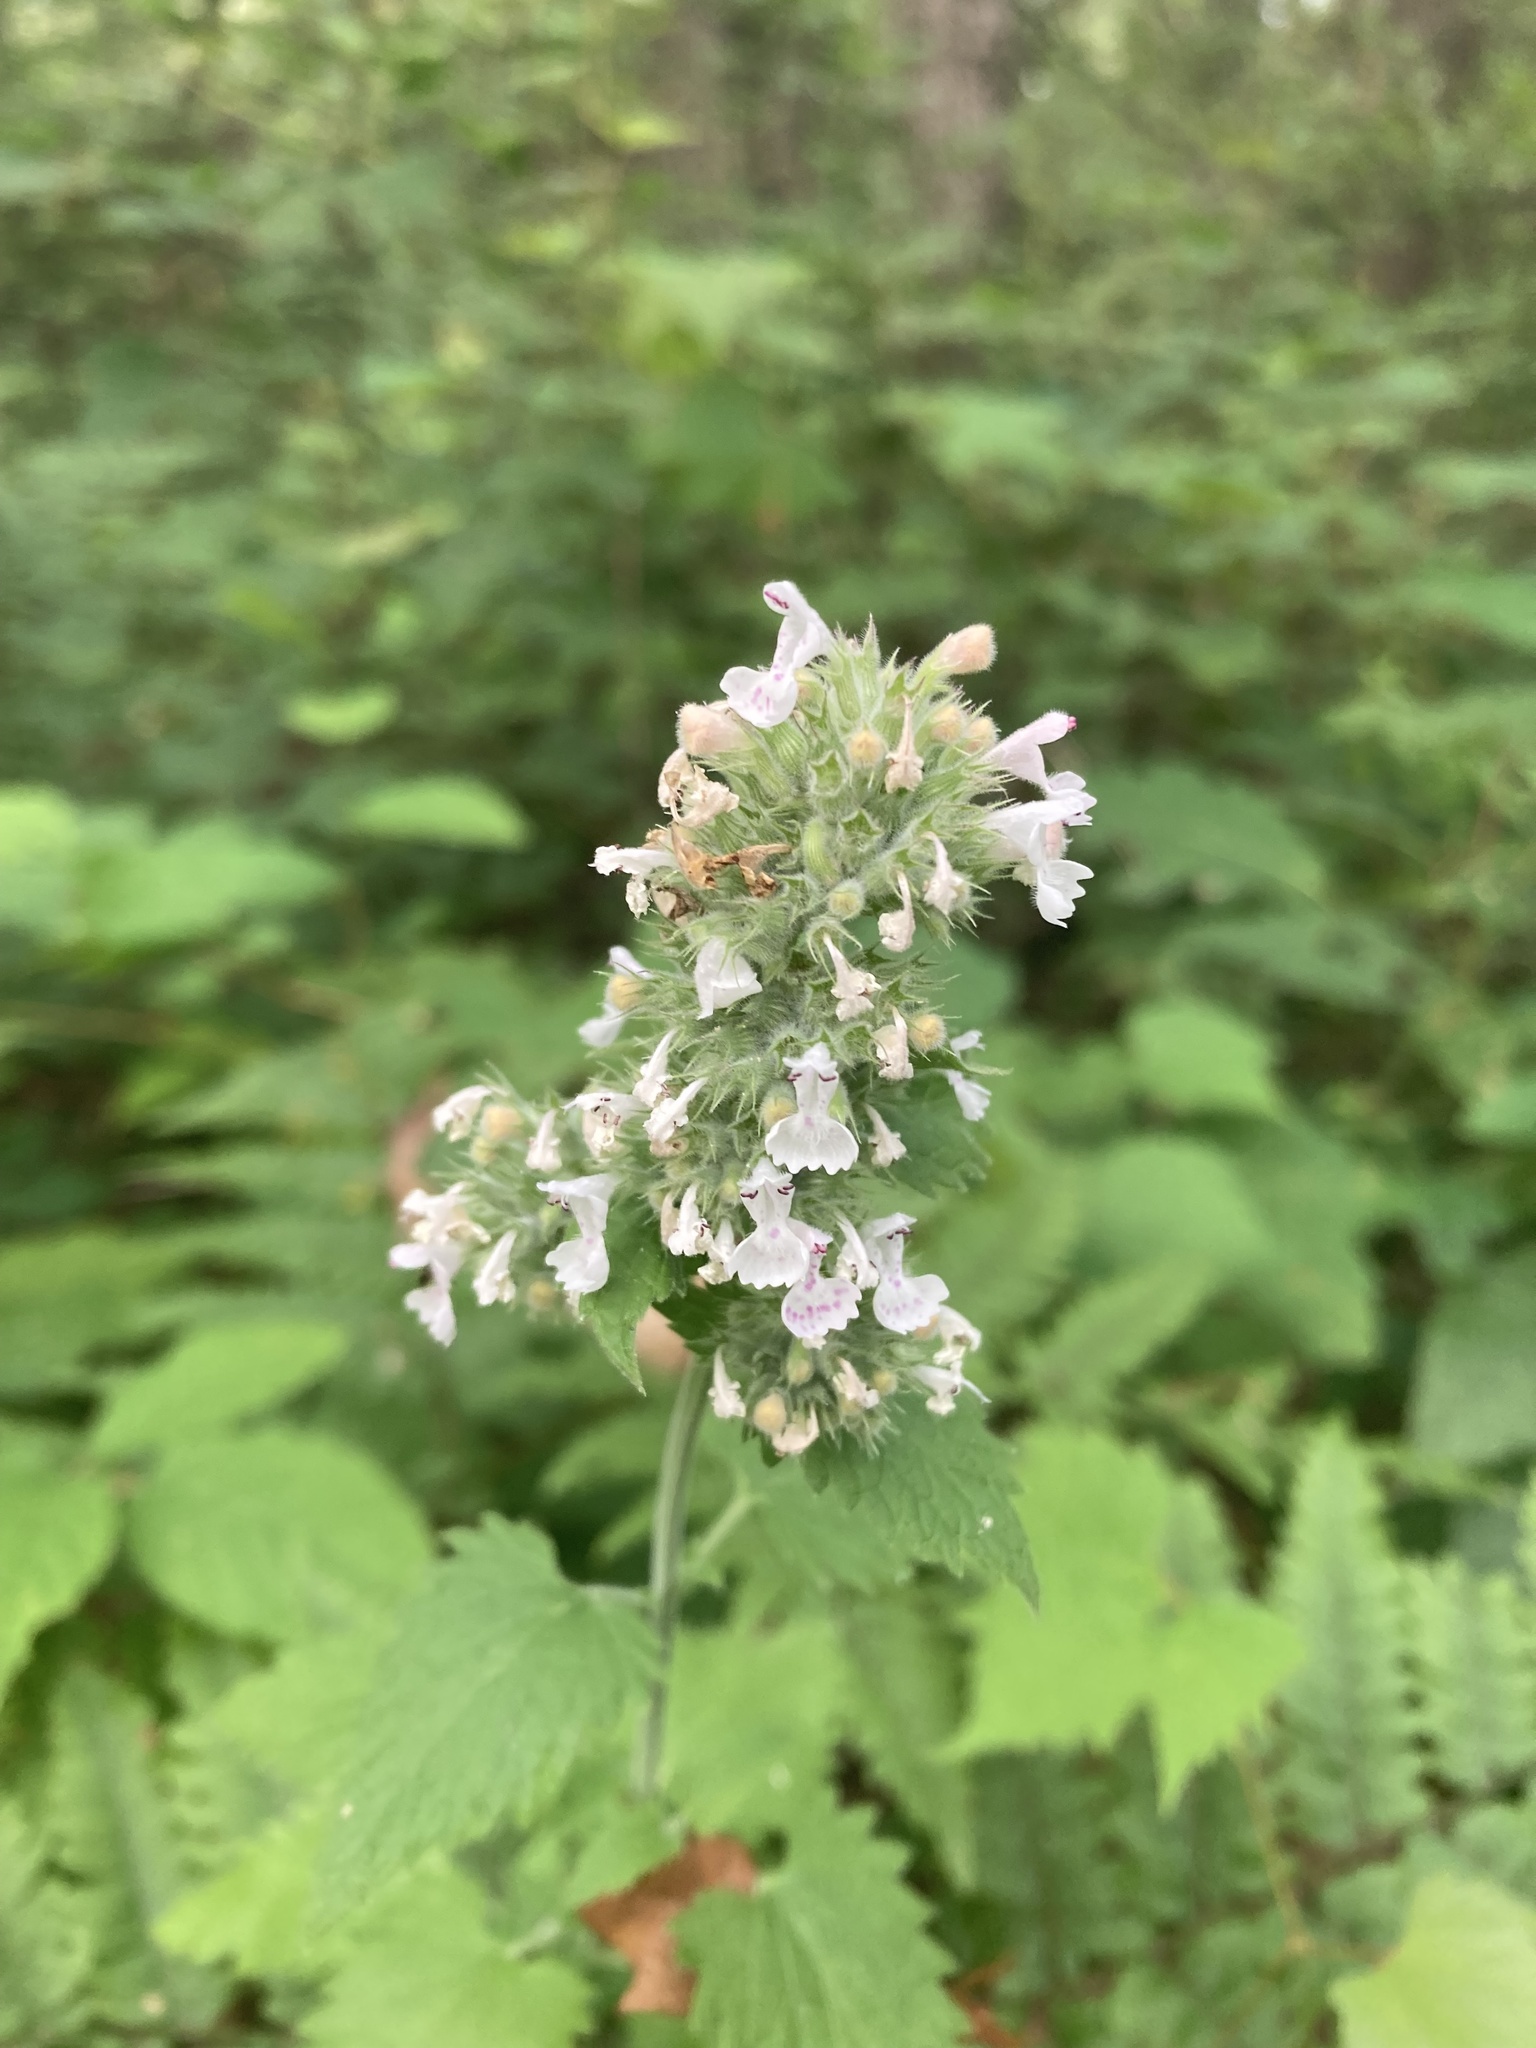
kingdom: Plantae
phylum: Tracheophyta
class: Magnoliopsida
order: Lamiales
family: Lamiaceae
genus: Nepeta
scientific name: Nepeta cataria
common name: Catnip
